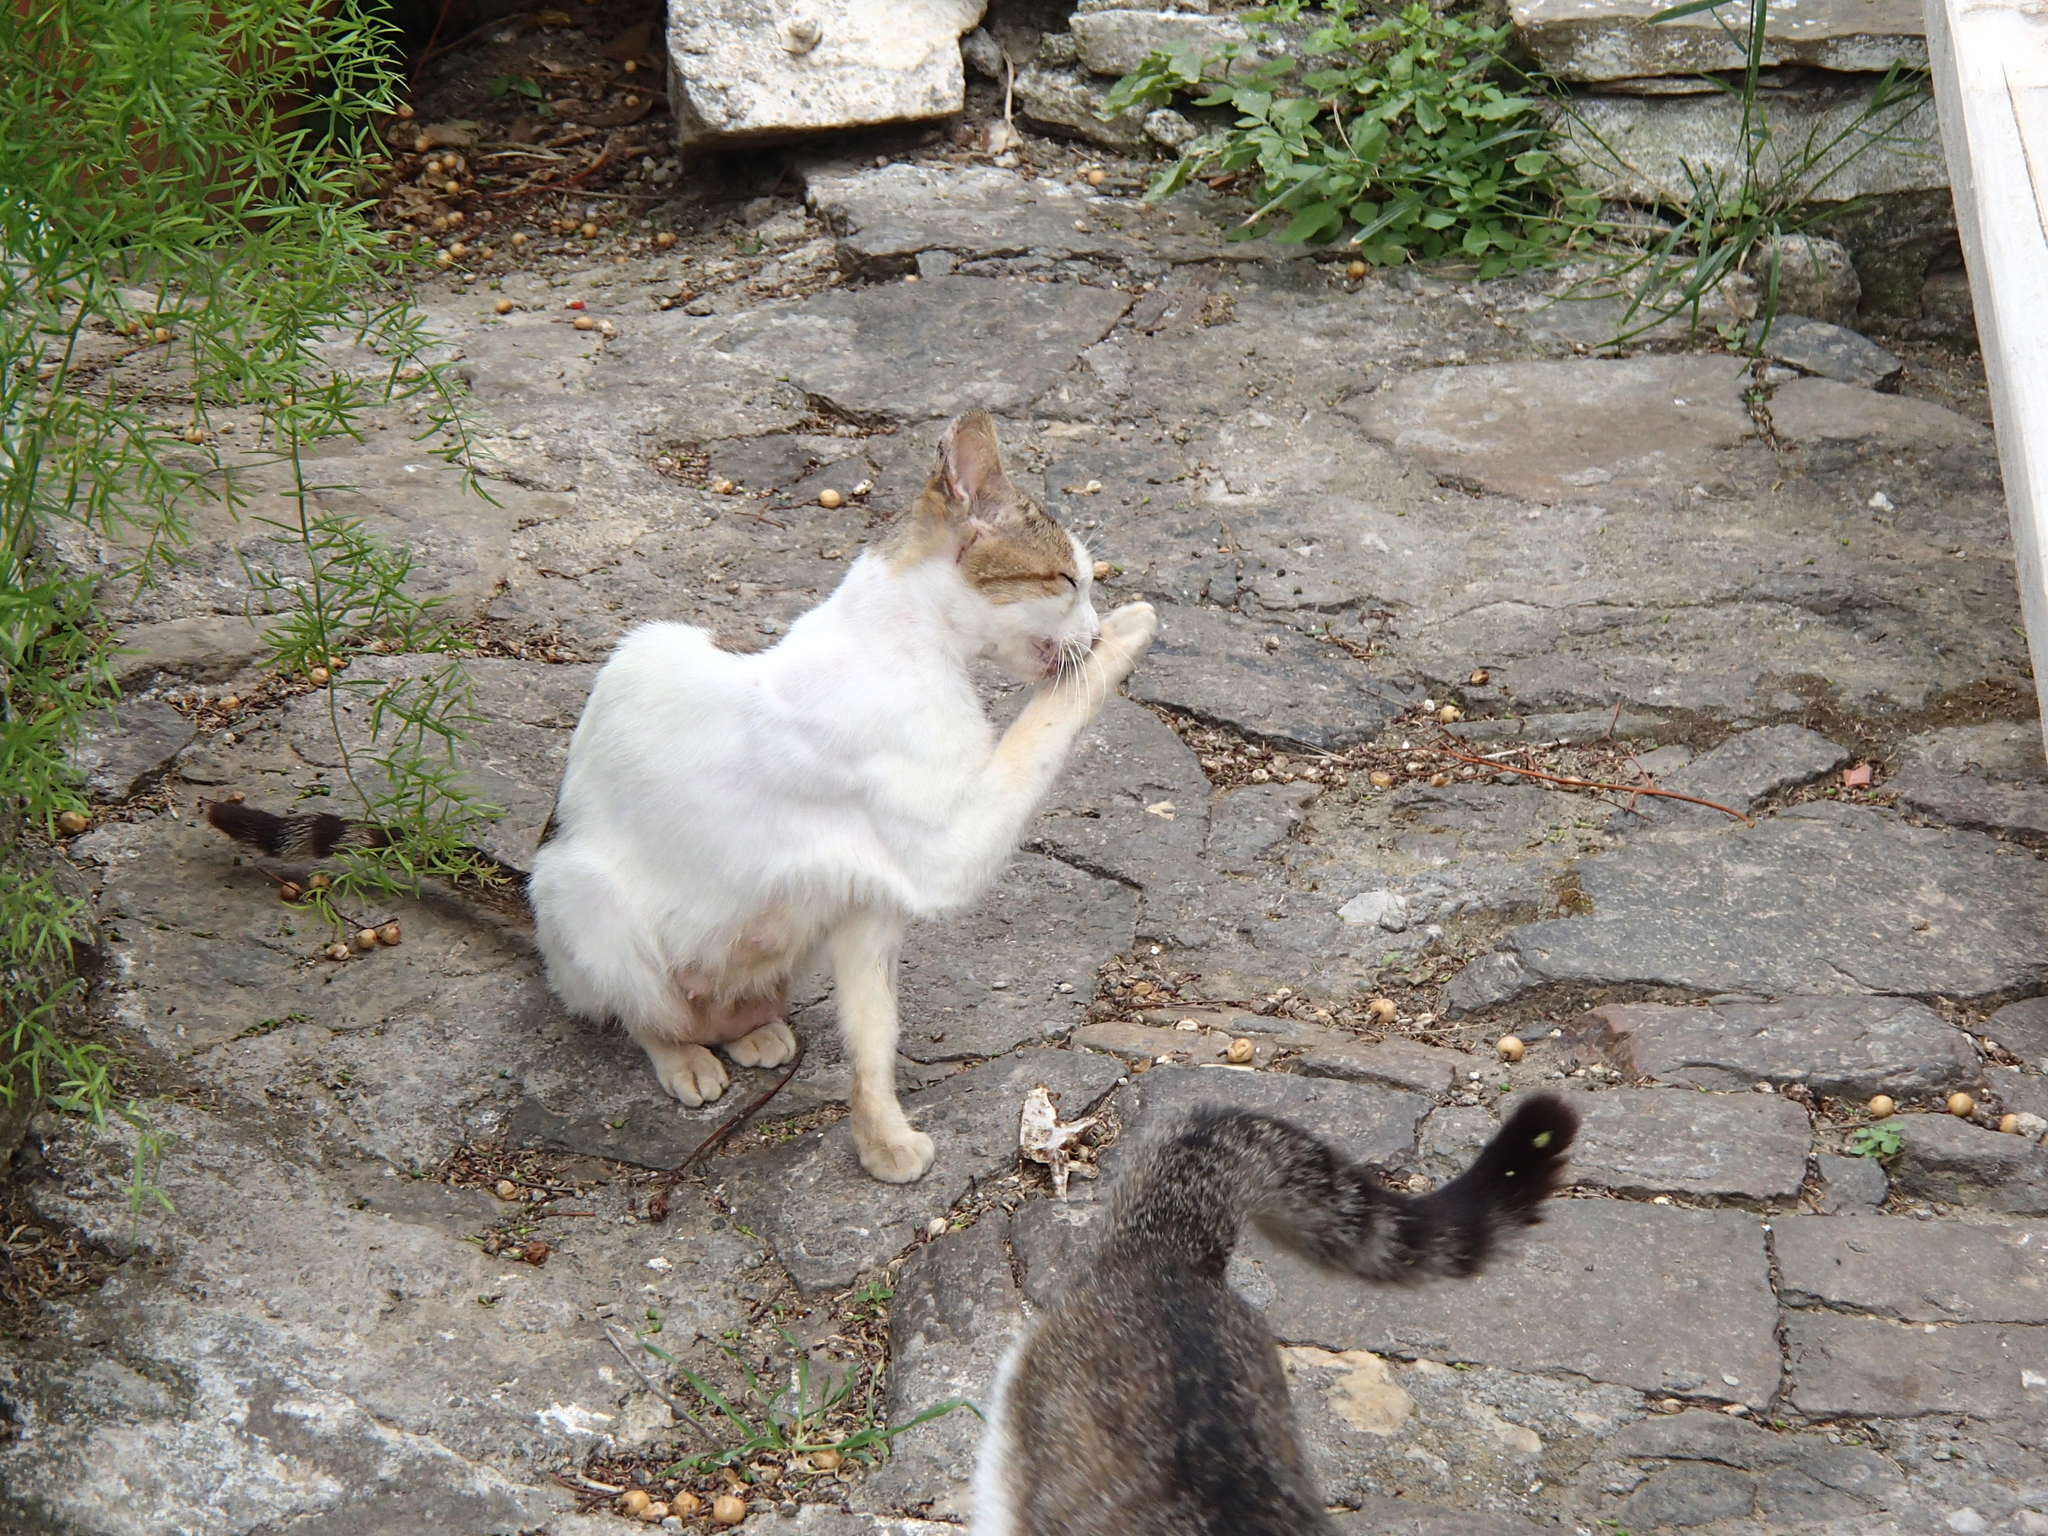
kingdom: Animalia
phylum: Chordata
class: Mammalia
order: Carnivora
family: Felidae
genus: Felis
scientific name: Felis catus
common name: Domestic cat
